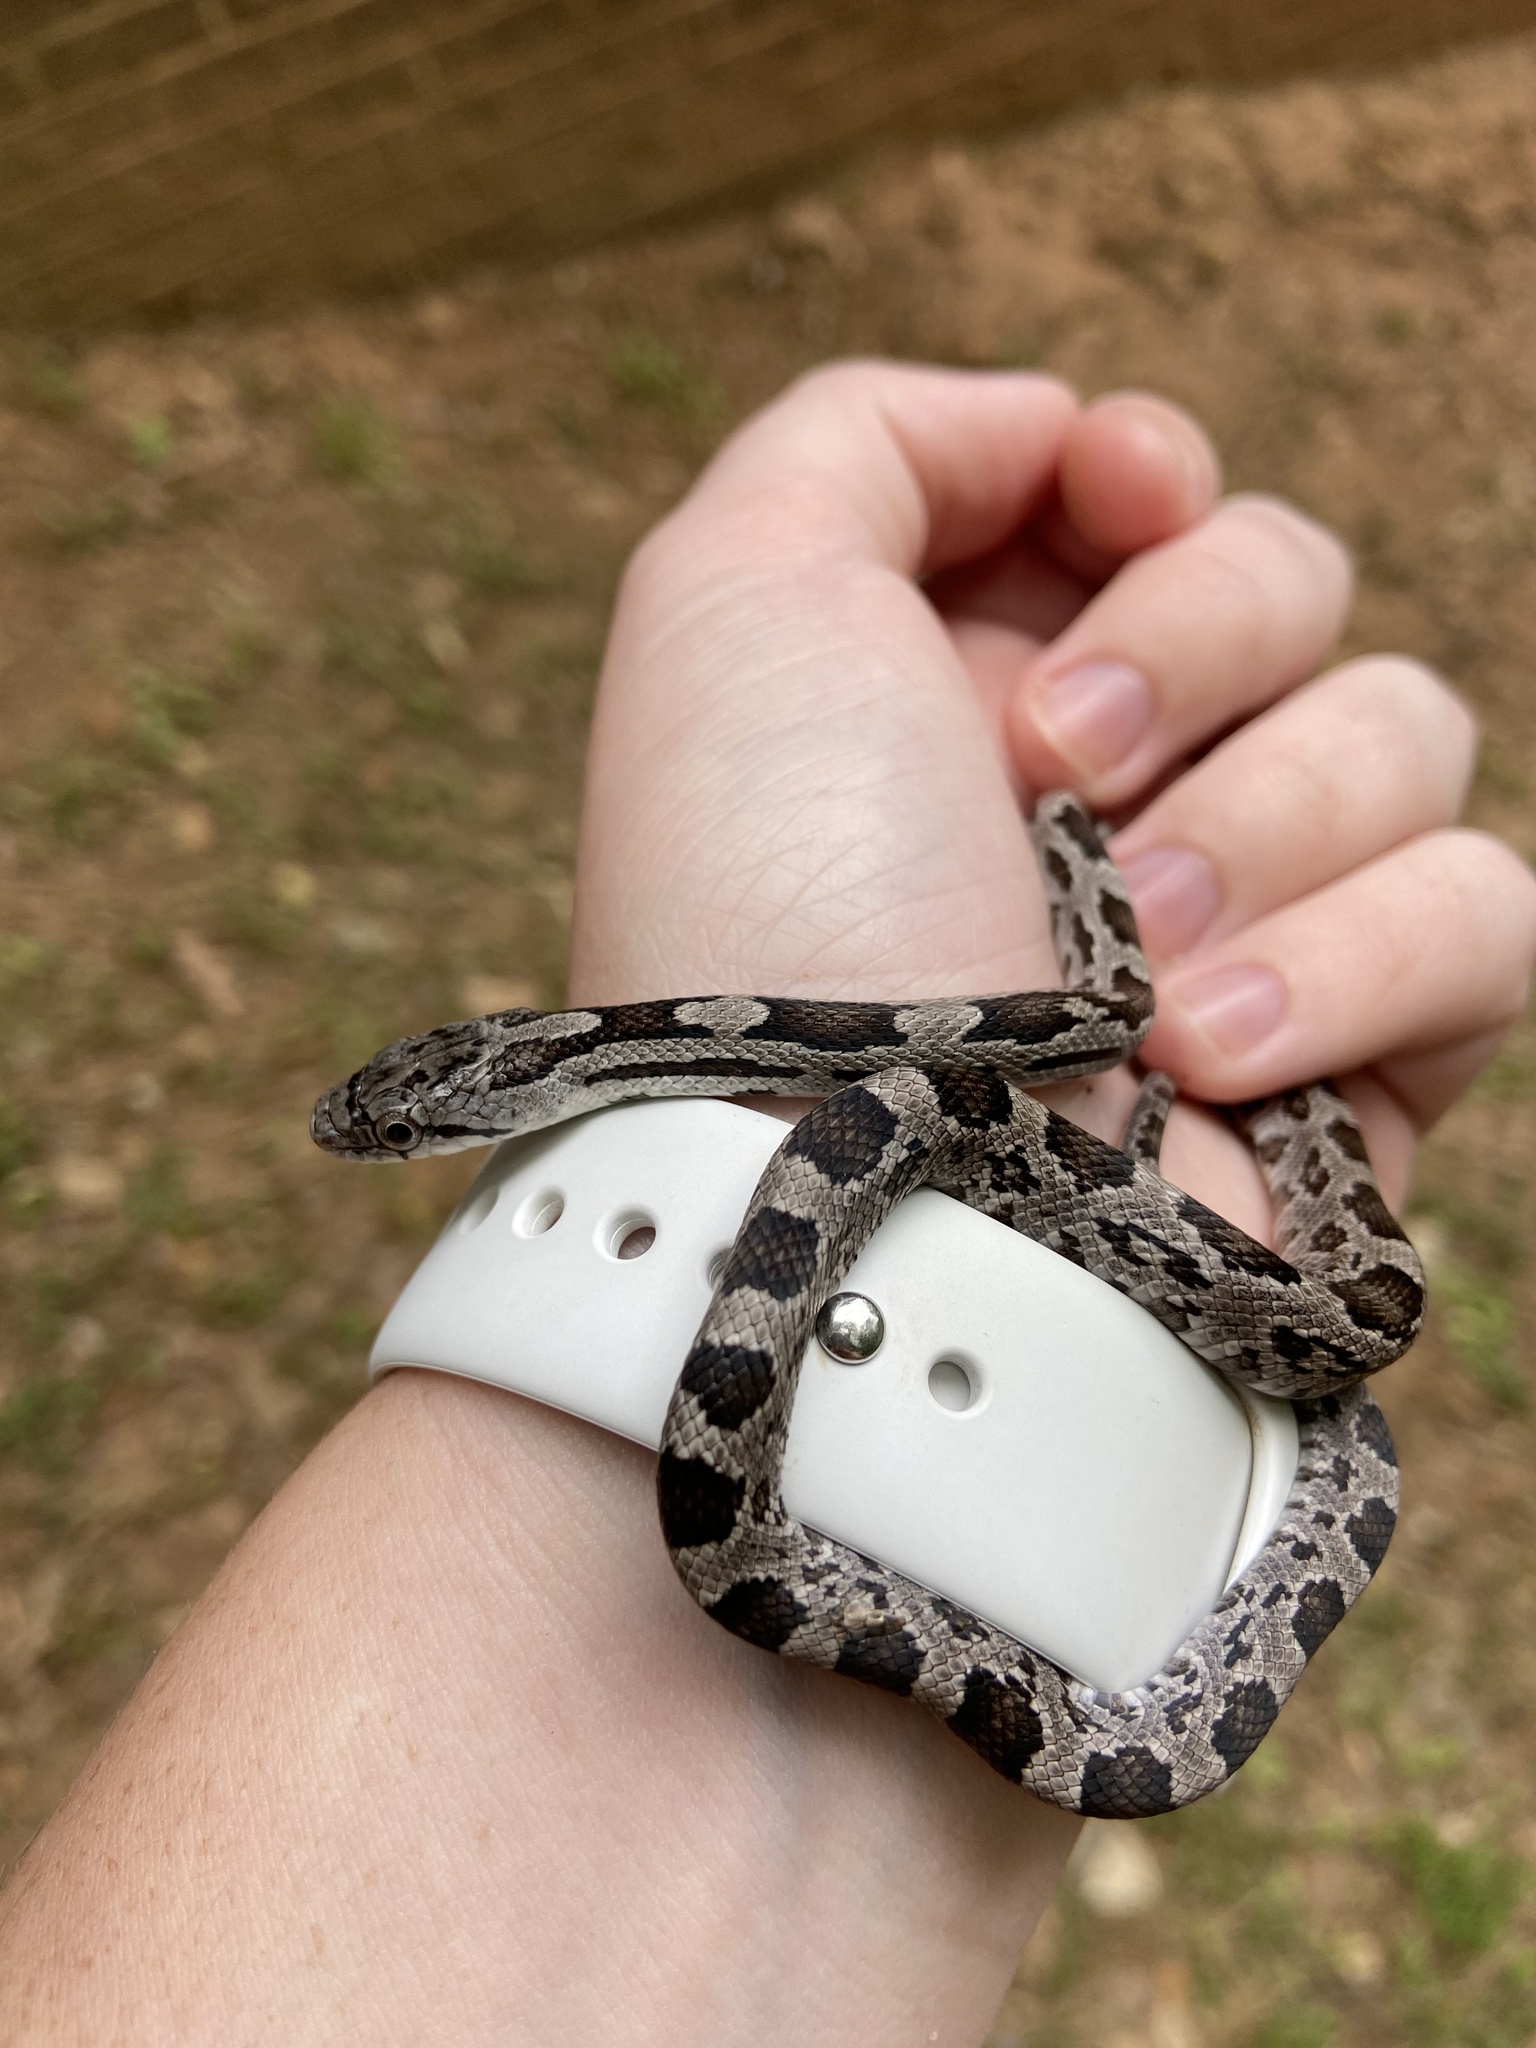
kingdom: Animalia
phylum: Chordata
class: Squamata
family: Colubridae
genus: Pantherophis
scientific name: Pantherophis alleghaniensis
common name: Eastern rat snake
